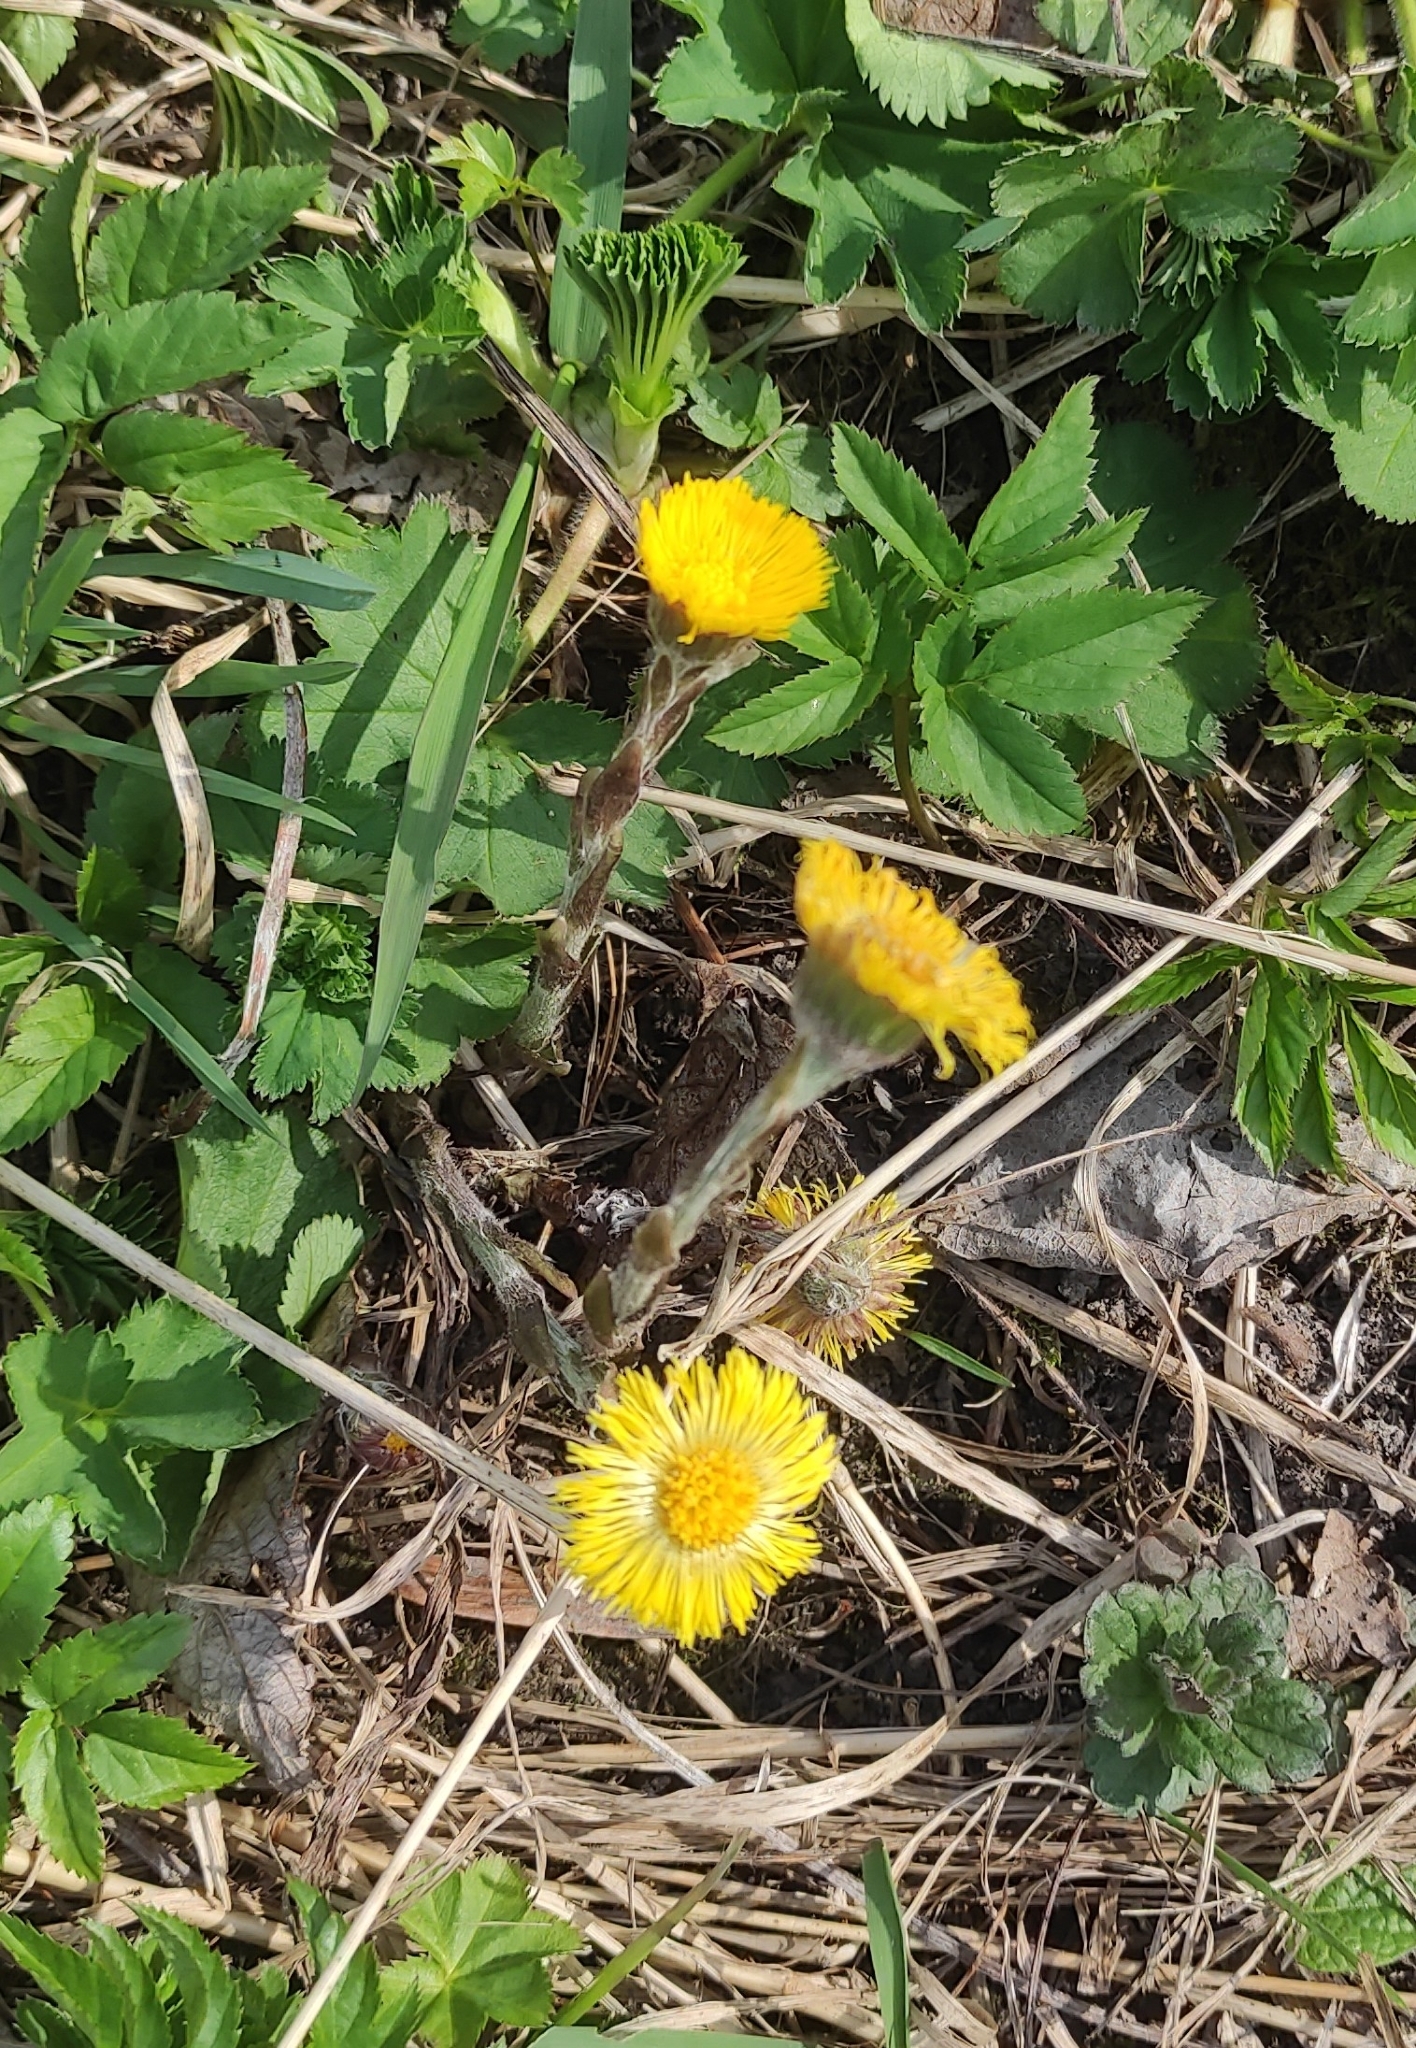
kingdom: Plantae
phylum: Tracheophyta
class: Magnoliopsida
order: Asterales
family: Asteraceae
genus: Tussilago
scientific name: Tussilago farfara
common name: Coltsfoot
